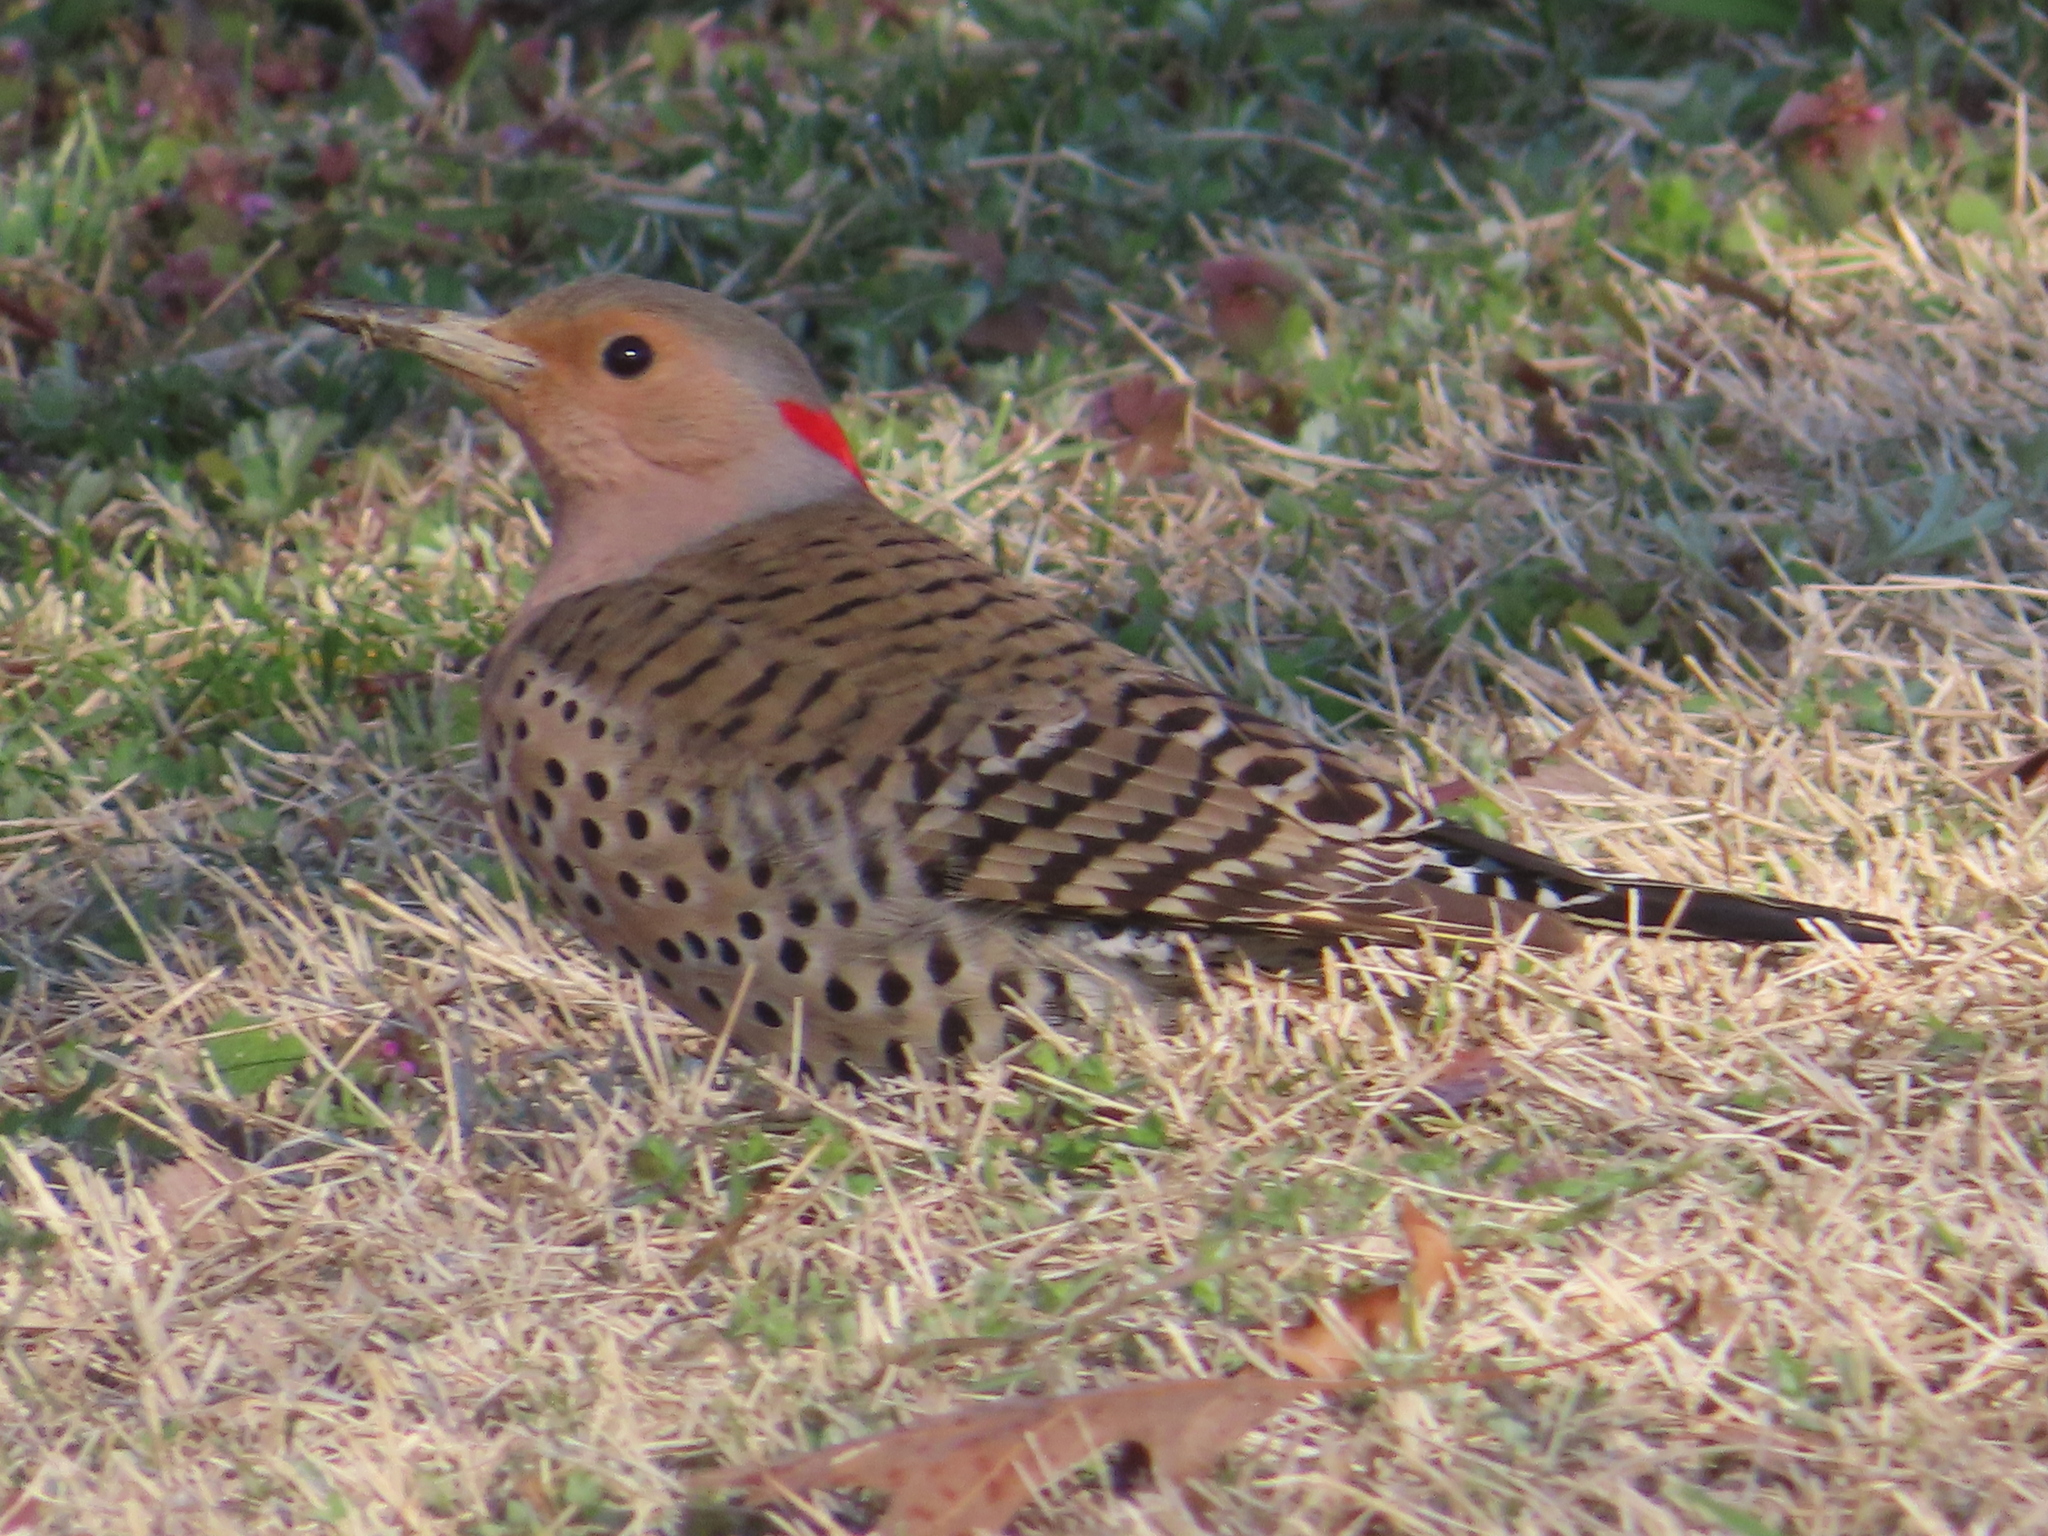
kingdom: Animalia
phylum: Chordata
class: Aves
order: Piciformes
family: Picidae
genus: Colaptes
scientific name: Colaptes auratus
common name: Northern flicker
